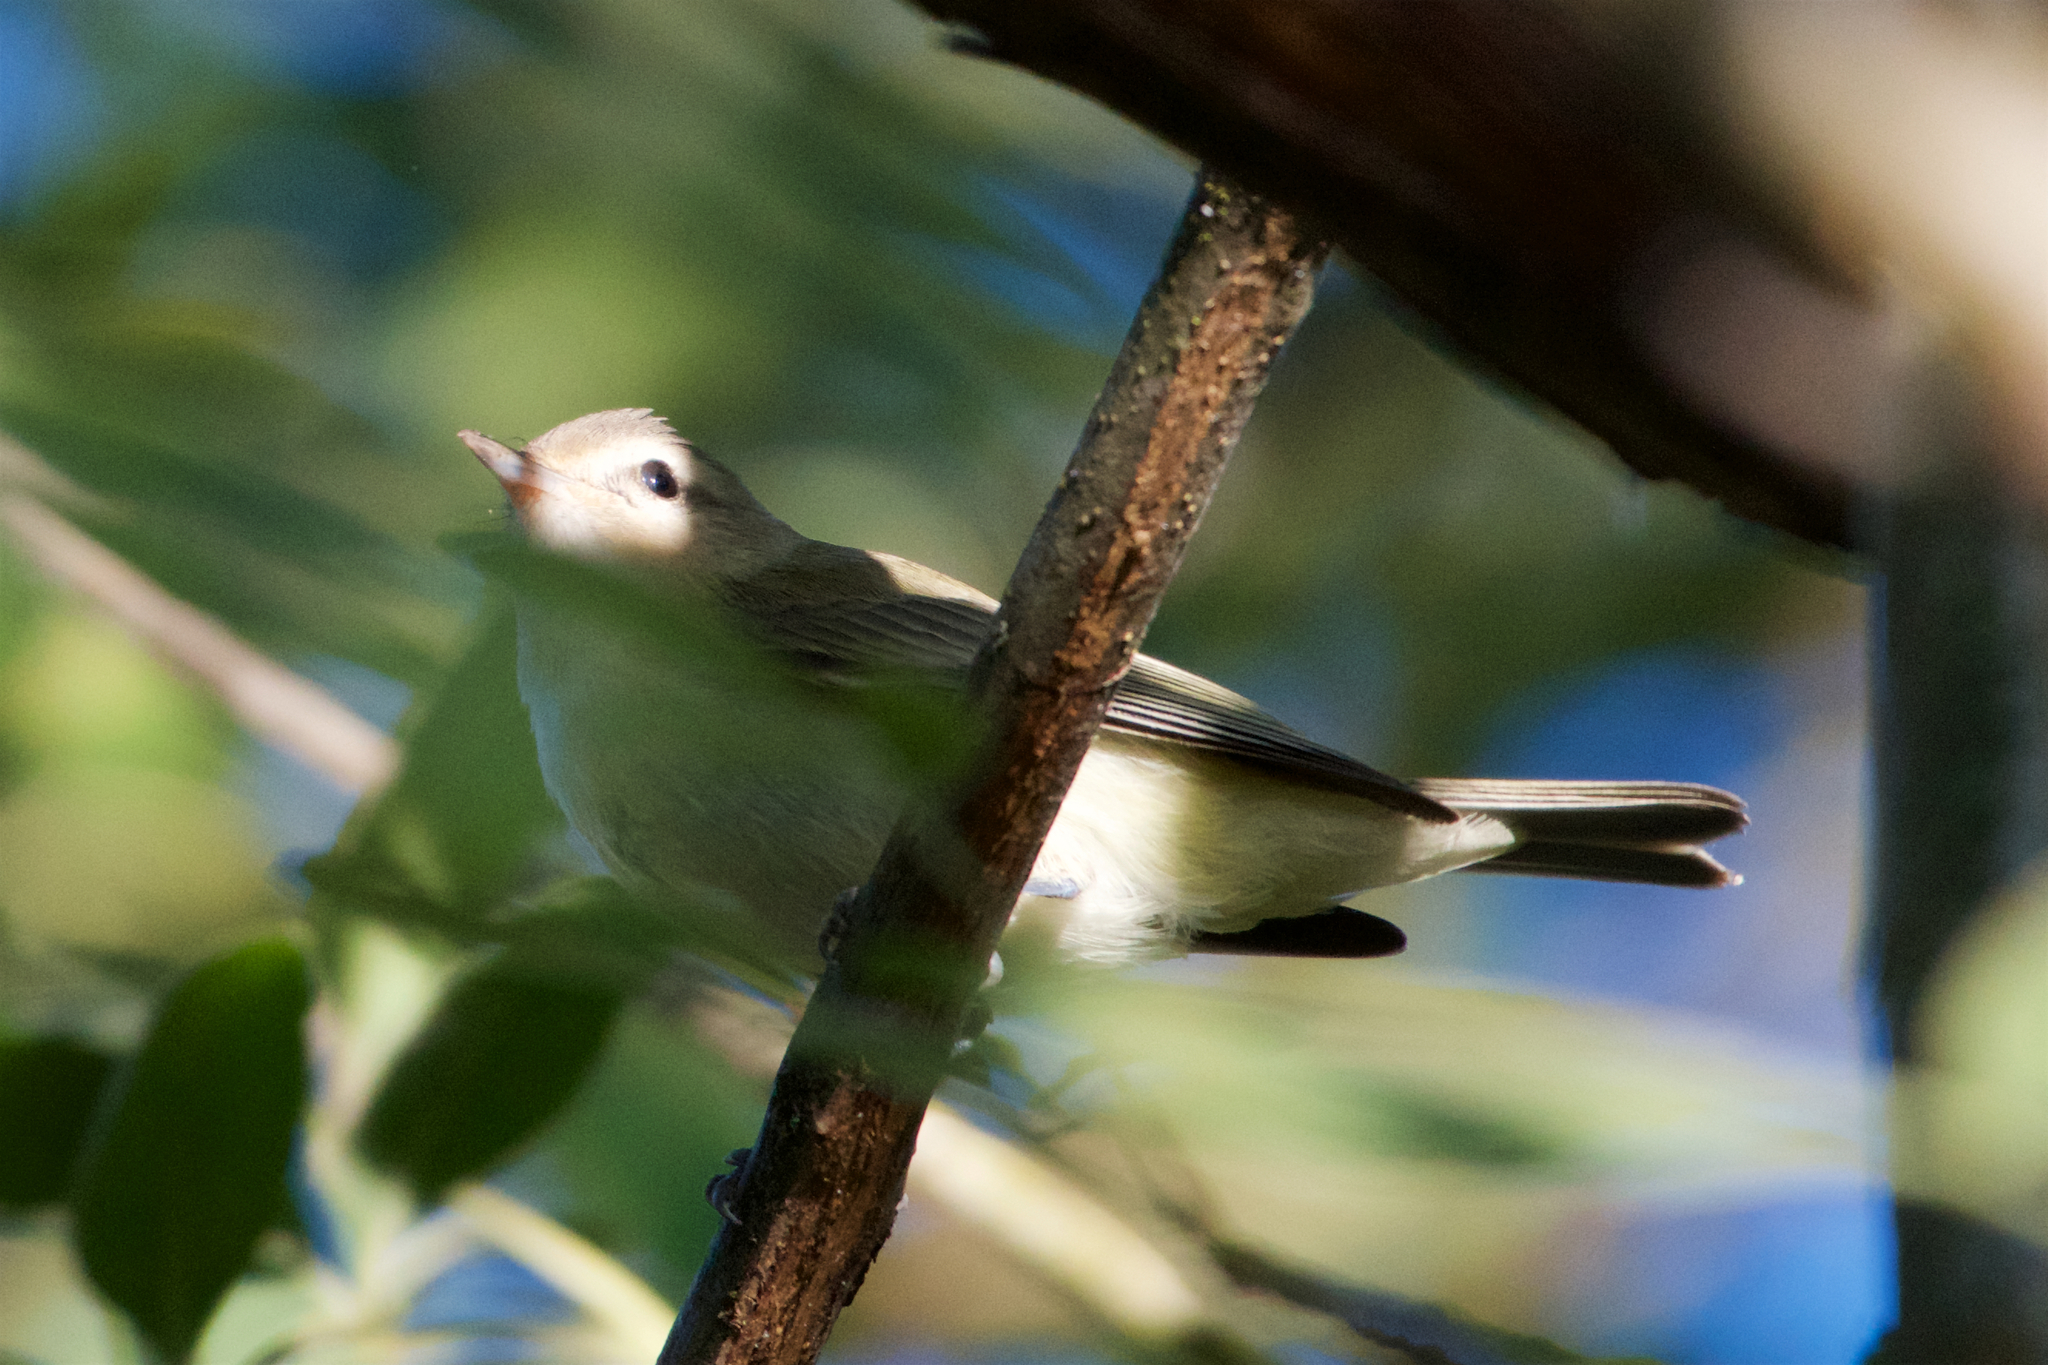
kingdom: Animalia
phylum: Chordata
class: Aves
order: Passeriformes
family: Vireonidae
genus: Vireo
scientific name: Vireo gilvus
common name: Warbling vireo
